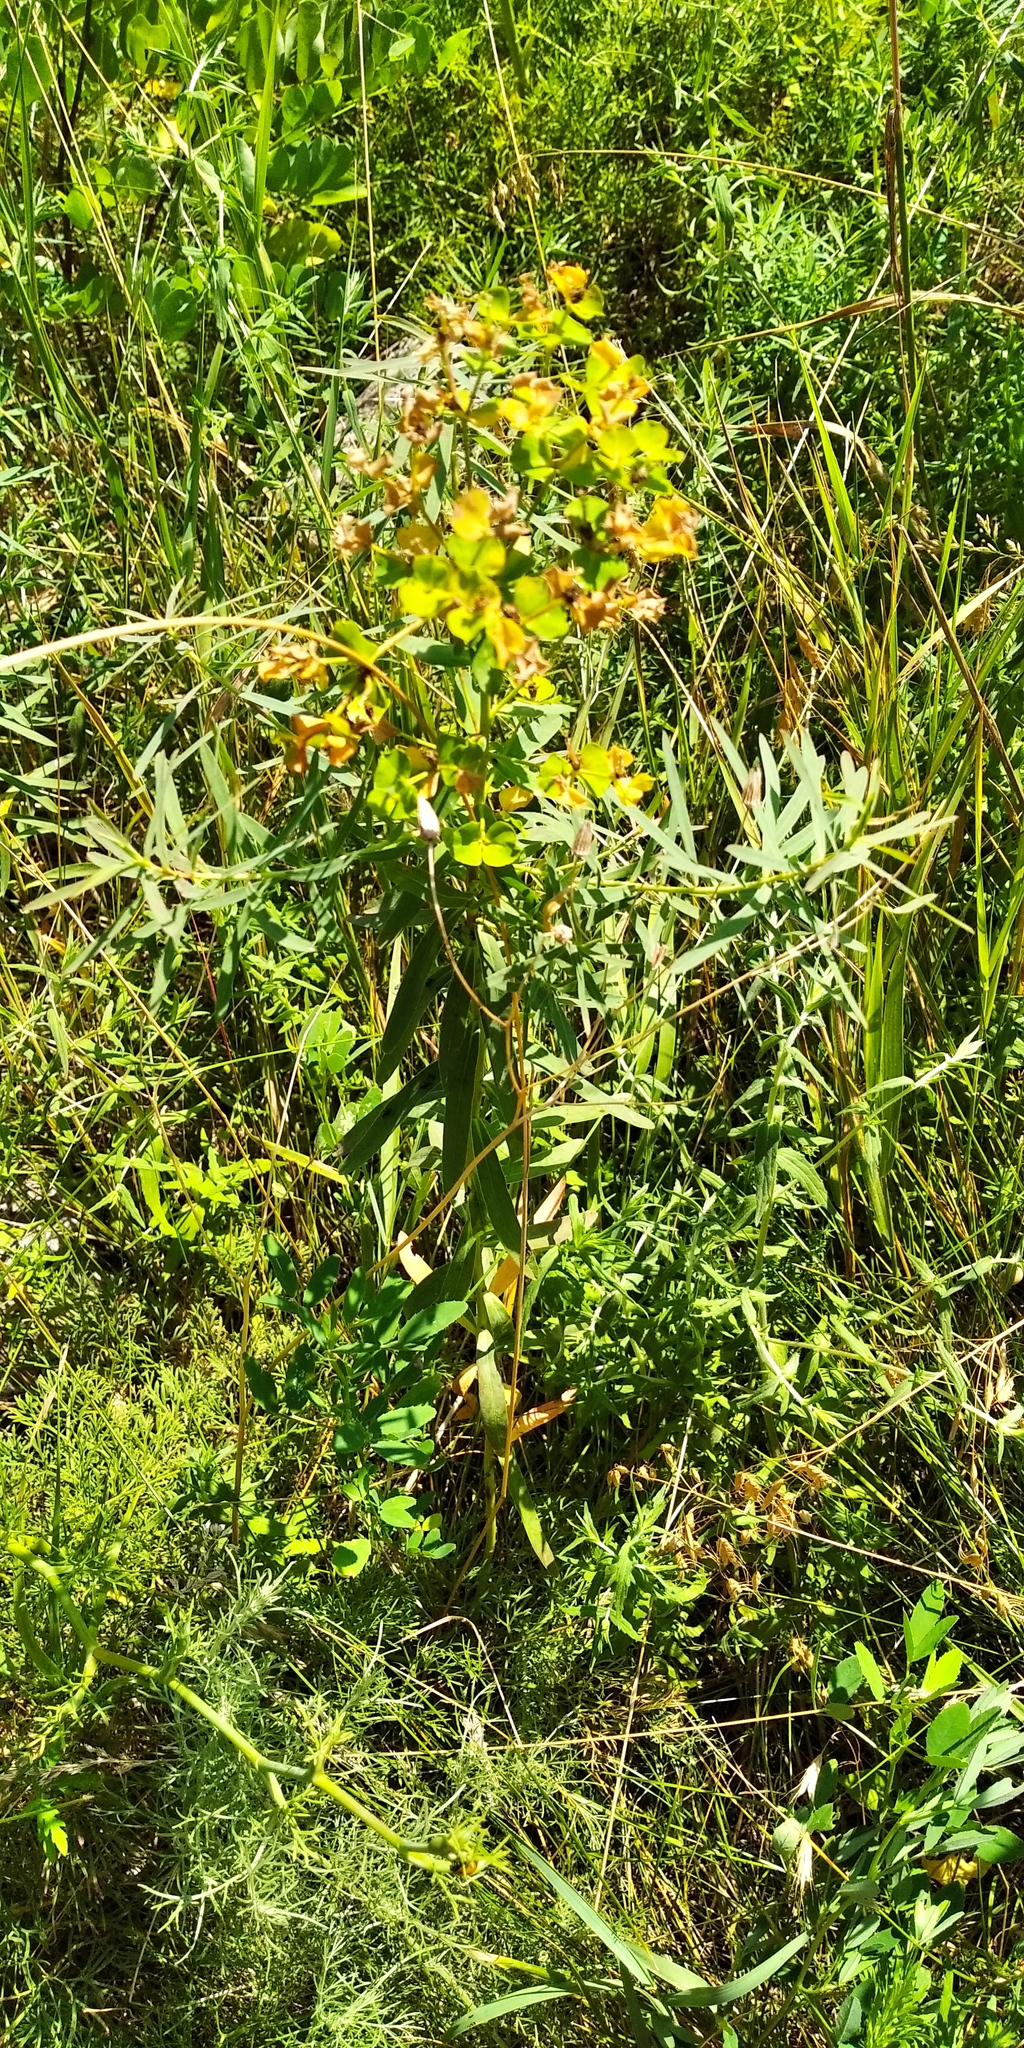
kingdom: Plantae
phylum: Tracheophyta
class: Magnoliopsida
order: Malpighiales
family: Euphorbiaceae
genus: Euphorbia
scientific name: Euphorbia virgata
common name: Leafy spurge
